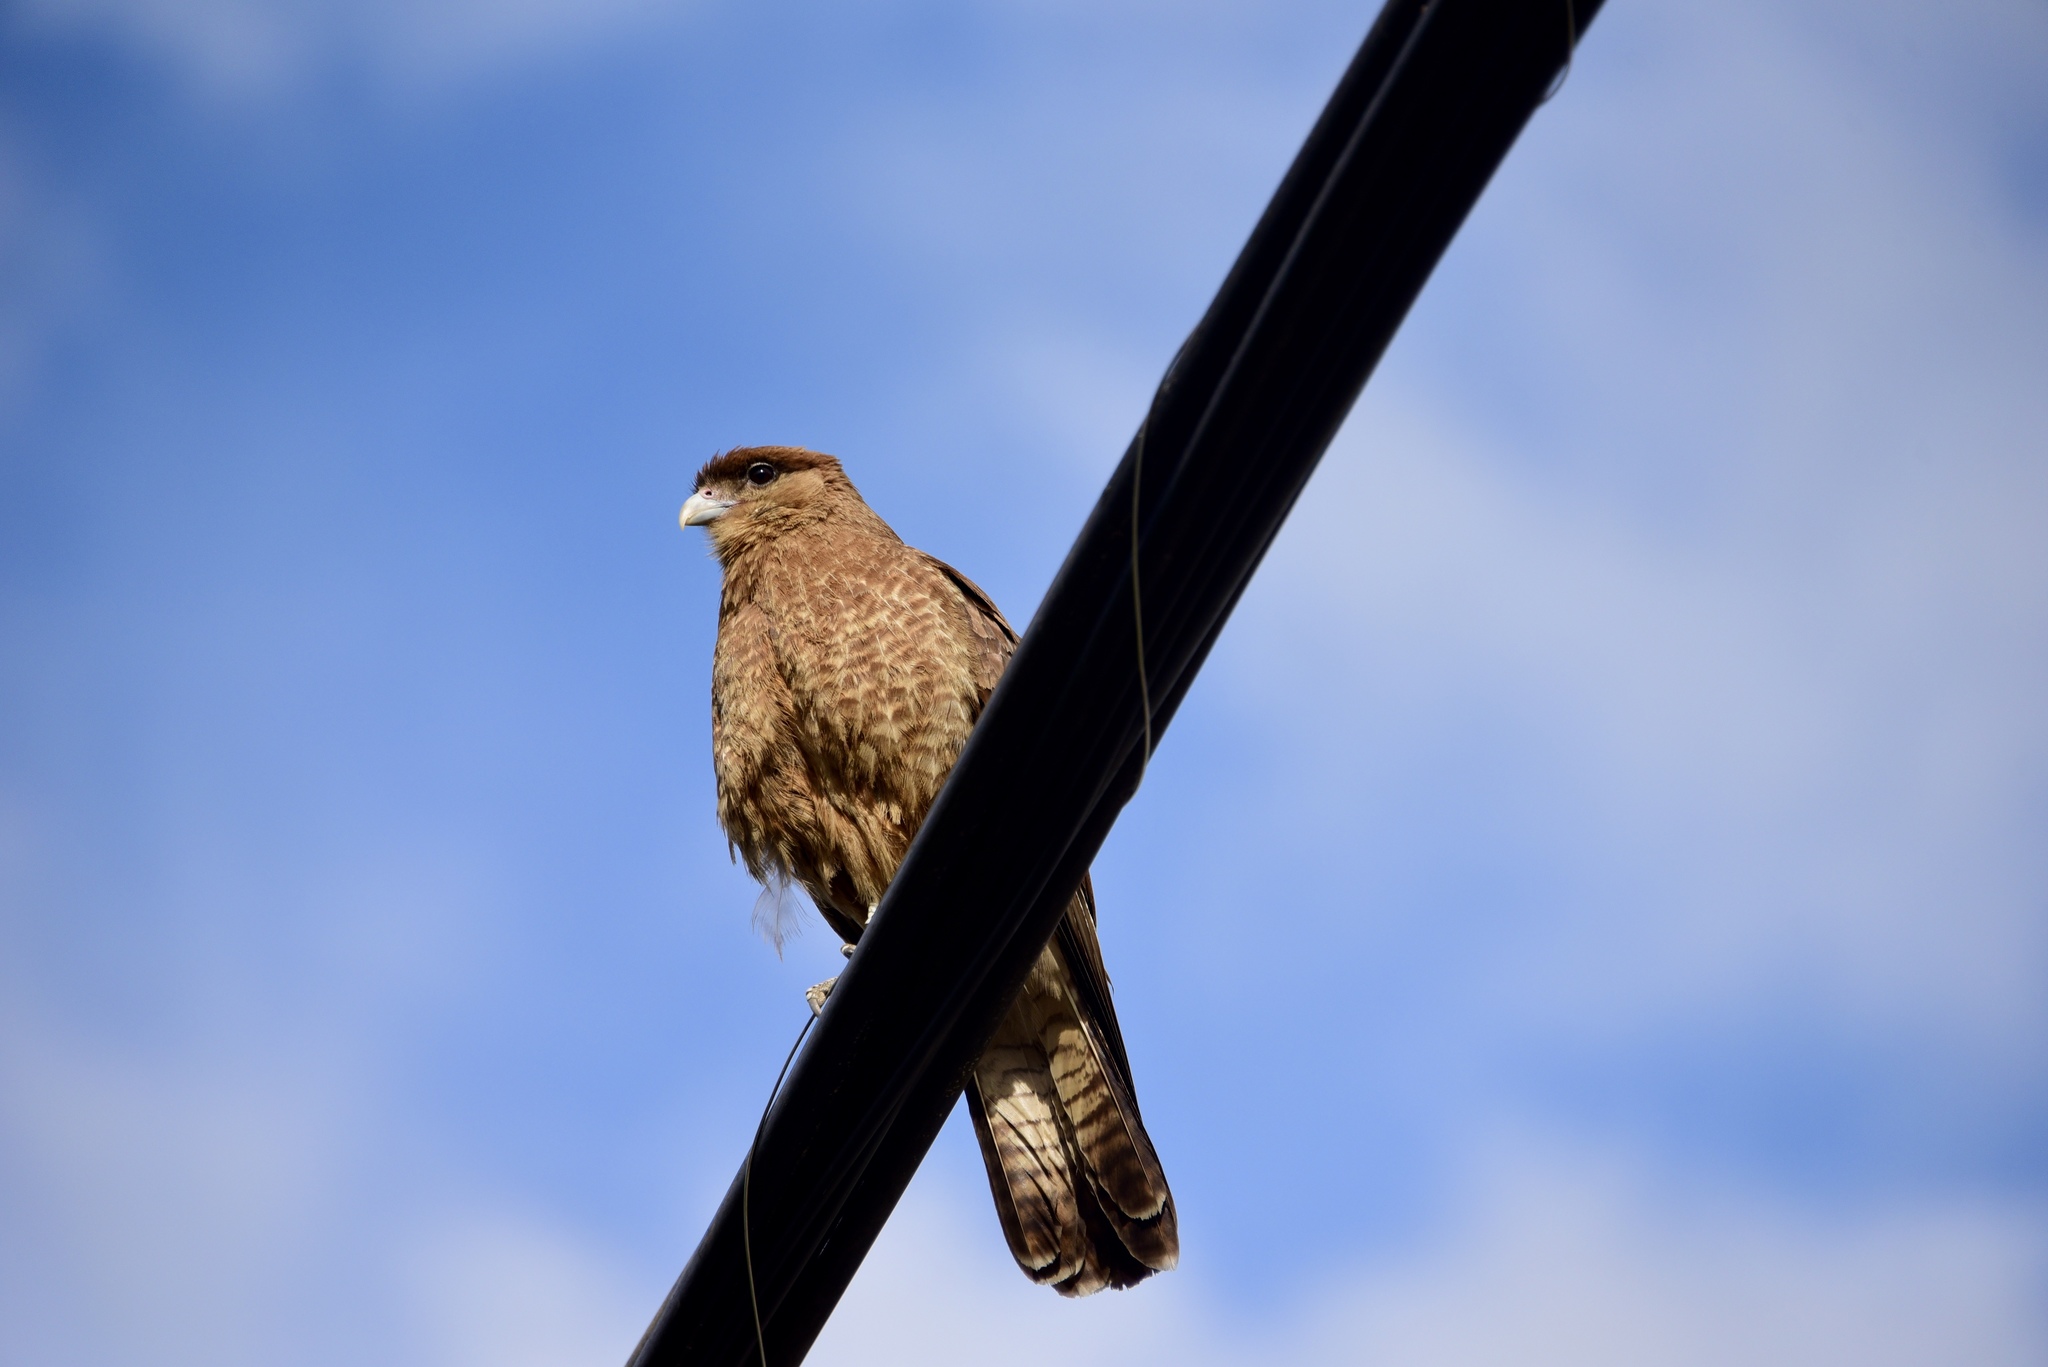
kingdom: Animalia
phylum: Chordata
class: Aves
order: Falconiformes
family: Falconidae
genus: Daptrius
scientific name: Daptrius
